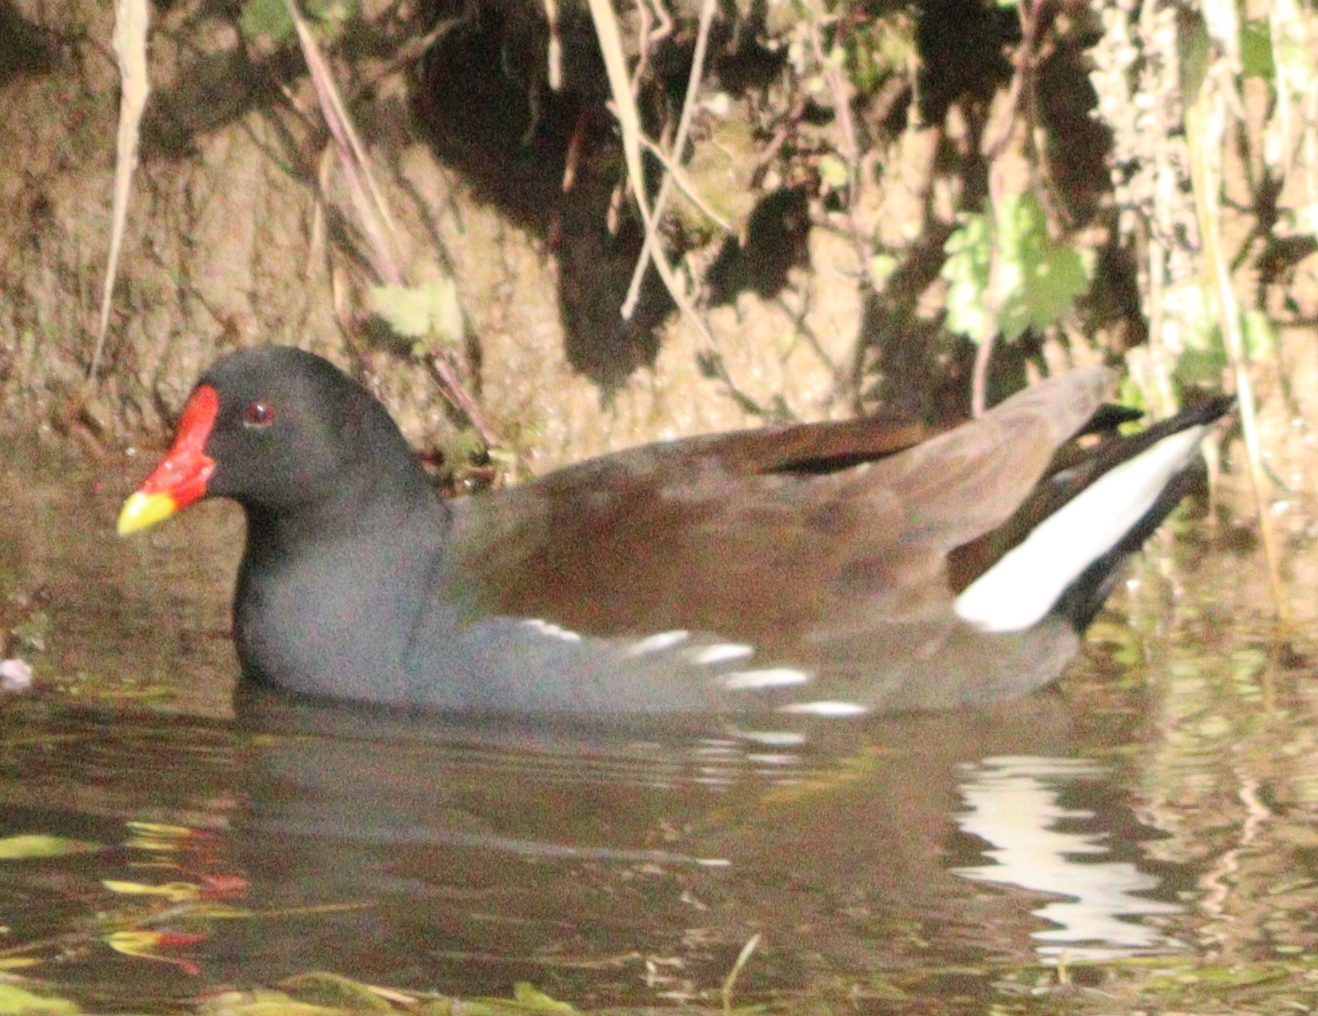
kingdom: Animalia
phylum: Chordata
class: Aves
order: Gruiformes
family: Rallidae
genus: Gallinula
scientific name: Gallinula chloropus
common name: Common moorhen
